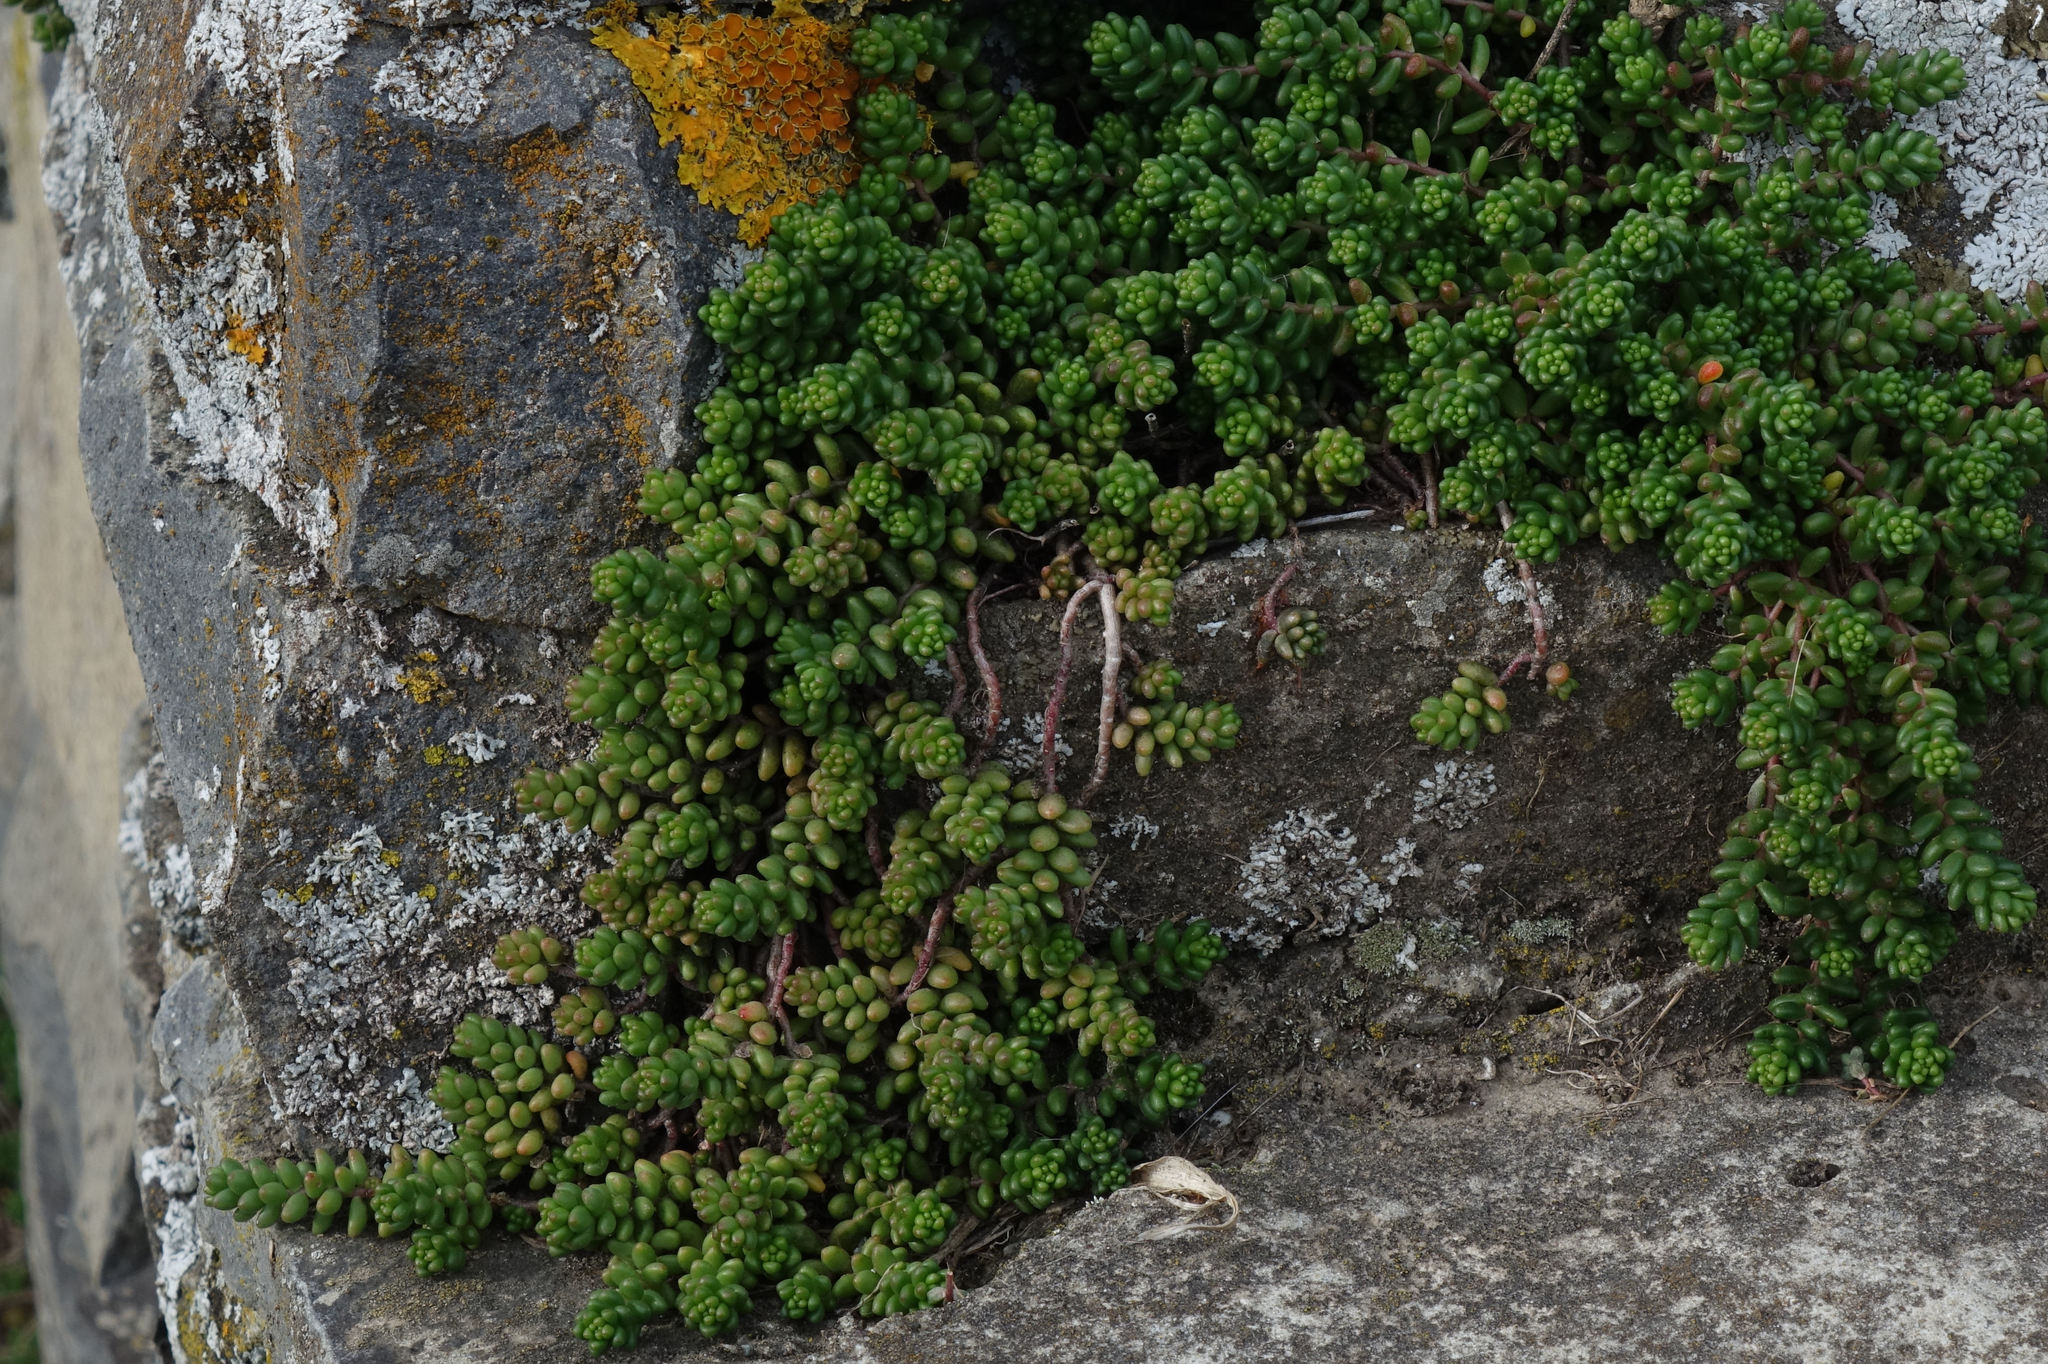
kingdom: Plantae
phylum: Tracheophyta
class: Magnoliopsida
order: Saxifragales
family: Crassulaceae
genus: Sedum
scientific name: Sedum album
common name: White stonecrop
